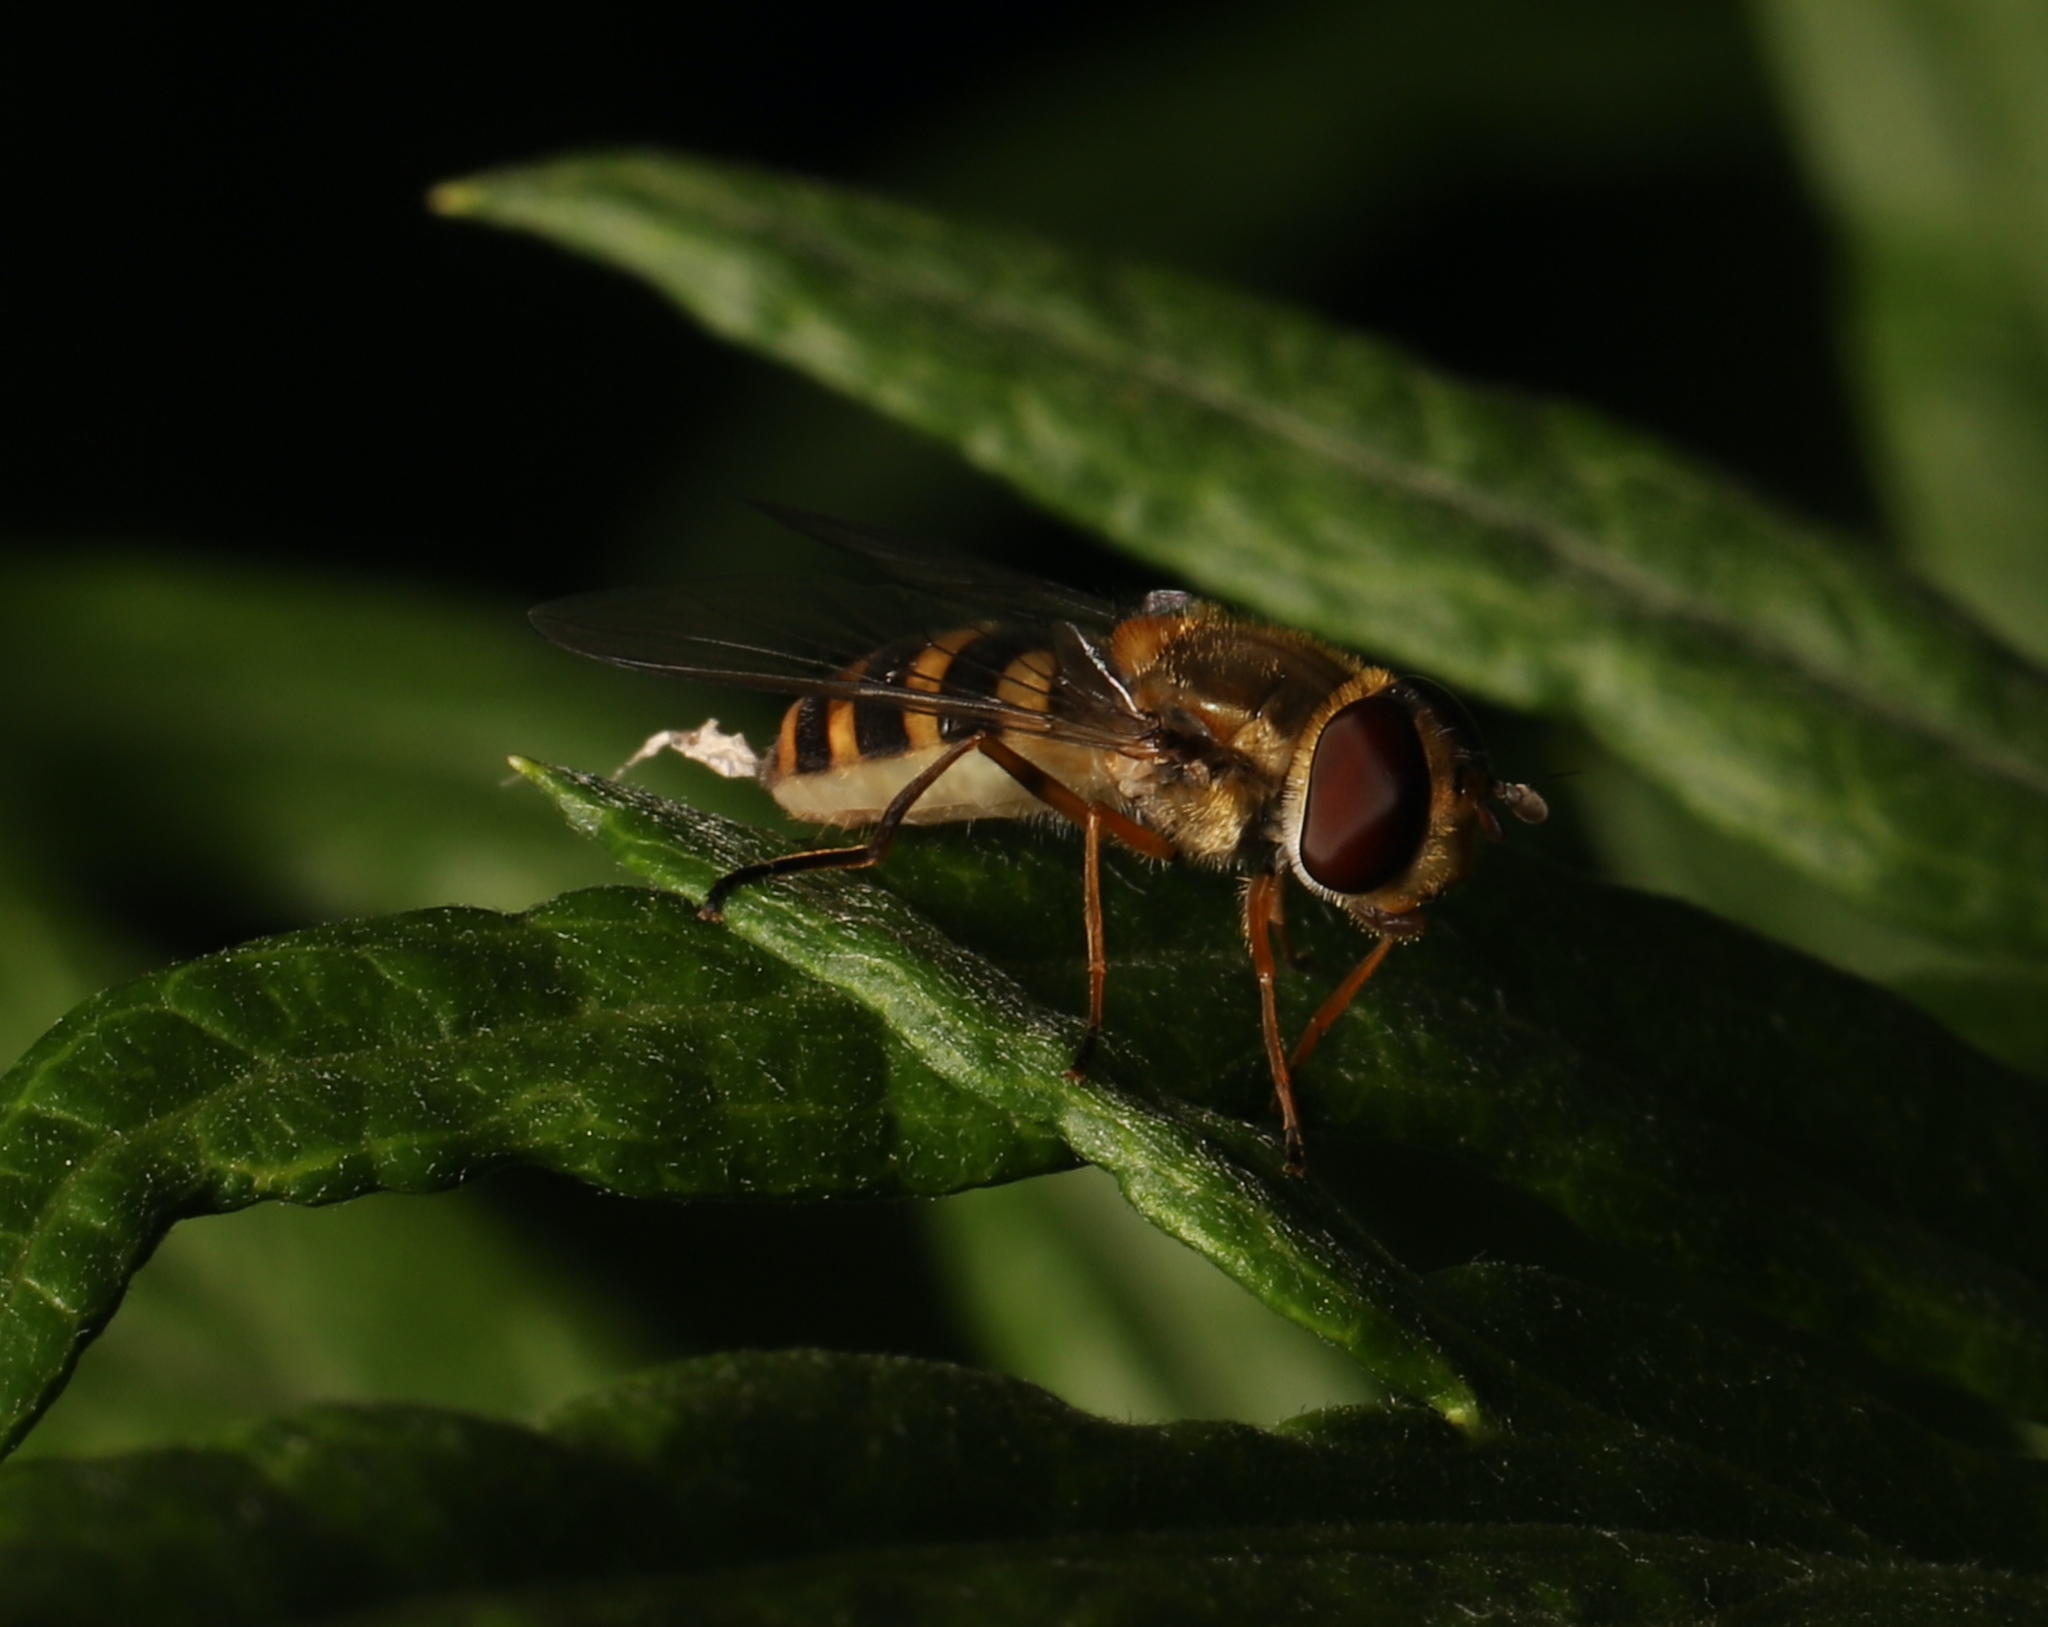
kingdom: Animalia
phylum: Arthropoda
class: Insecta
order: Diptera
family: Syrphidae
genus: Syrphus
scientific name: Syrphus rectus
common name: Yellow-legged flower fly
